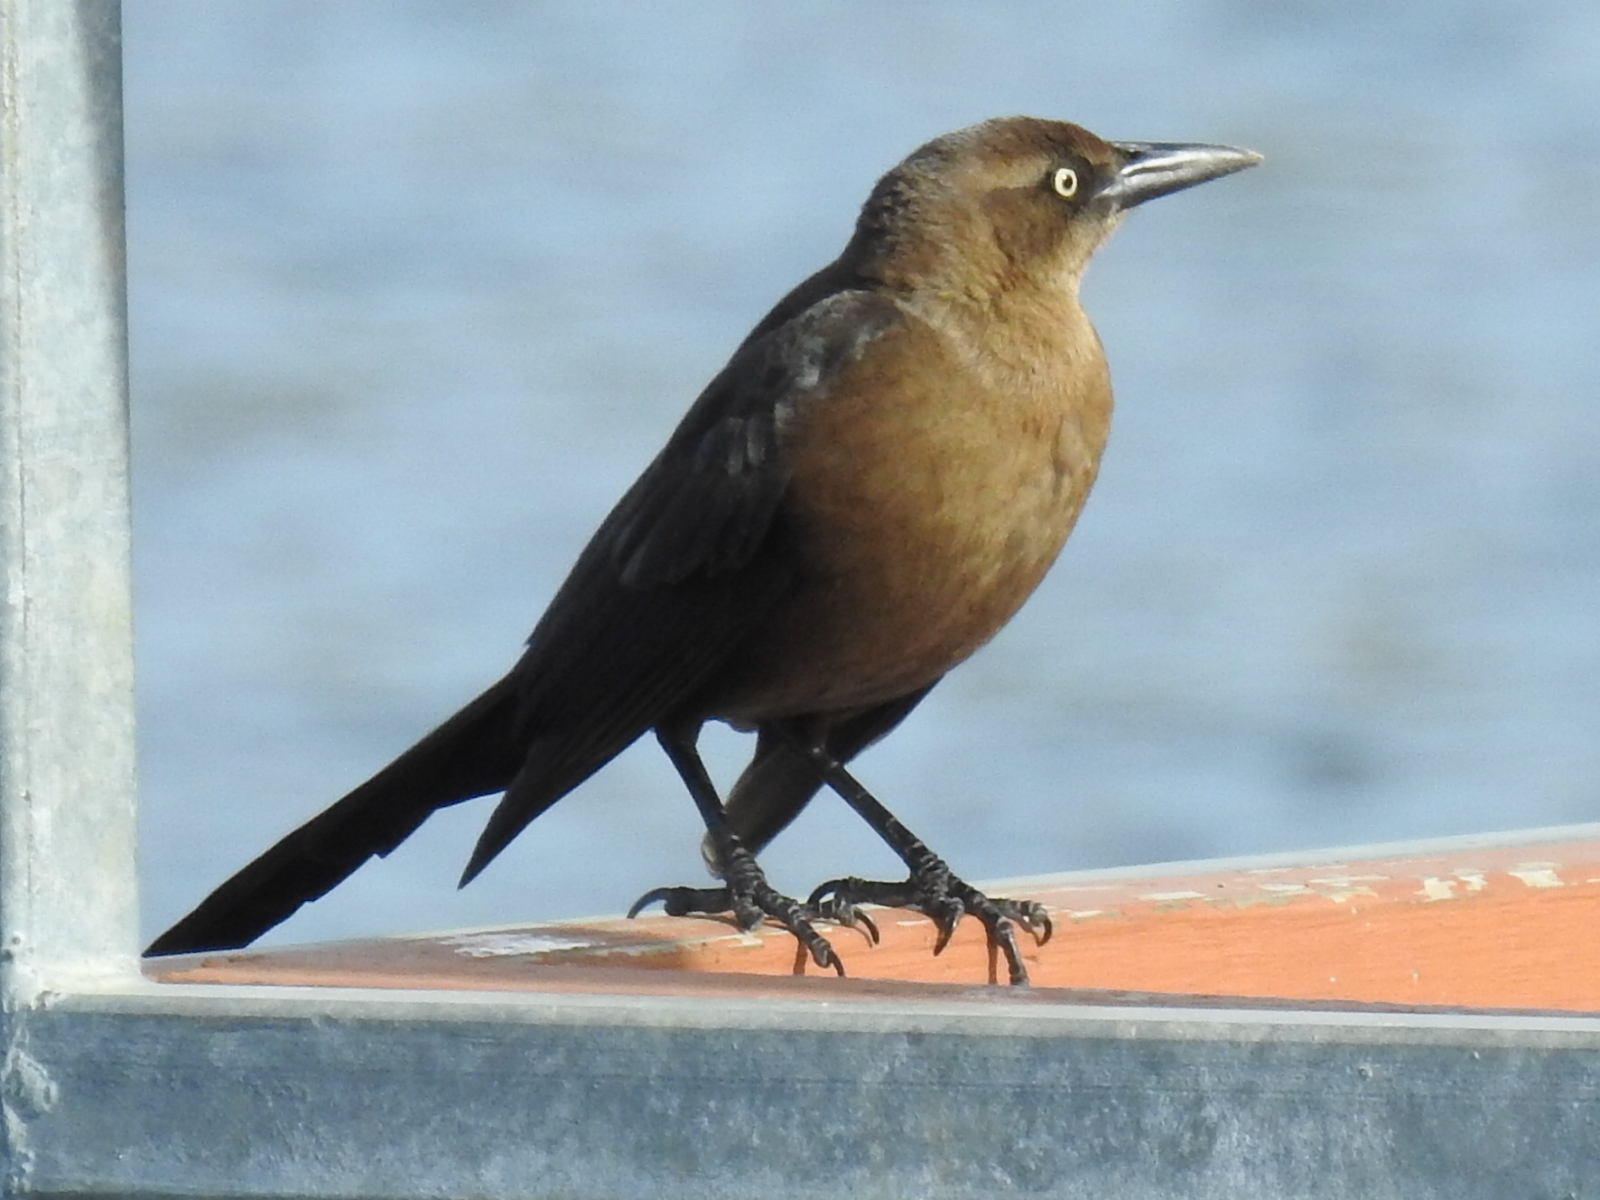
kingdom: Animalia
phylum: Chordata
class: Aves
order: Passeriformes
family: Icteridae
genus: Quiscalus
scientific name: Quiscalus mexicanus
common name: Great-tailed grackle
